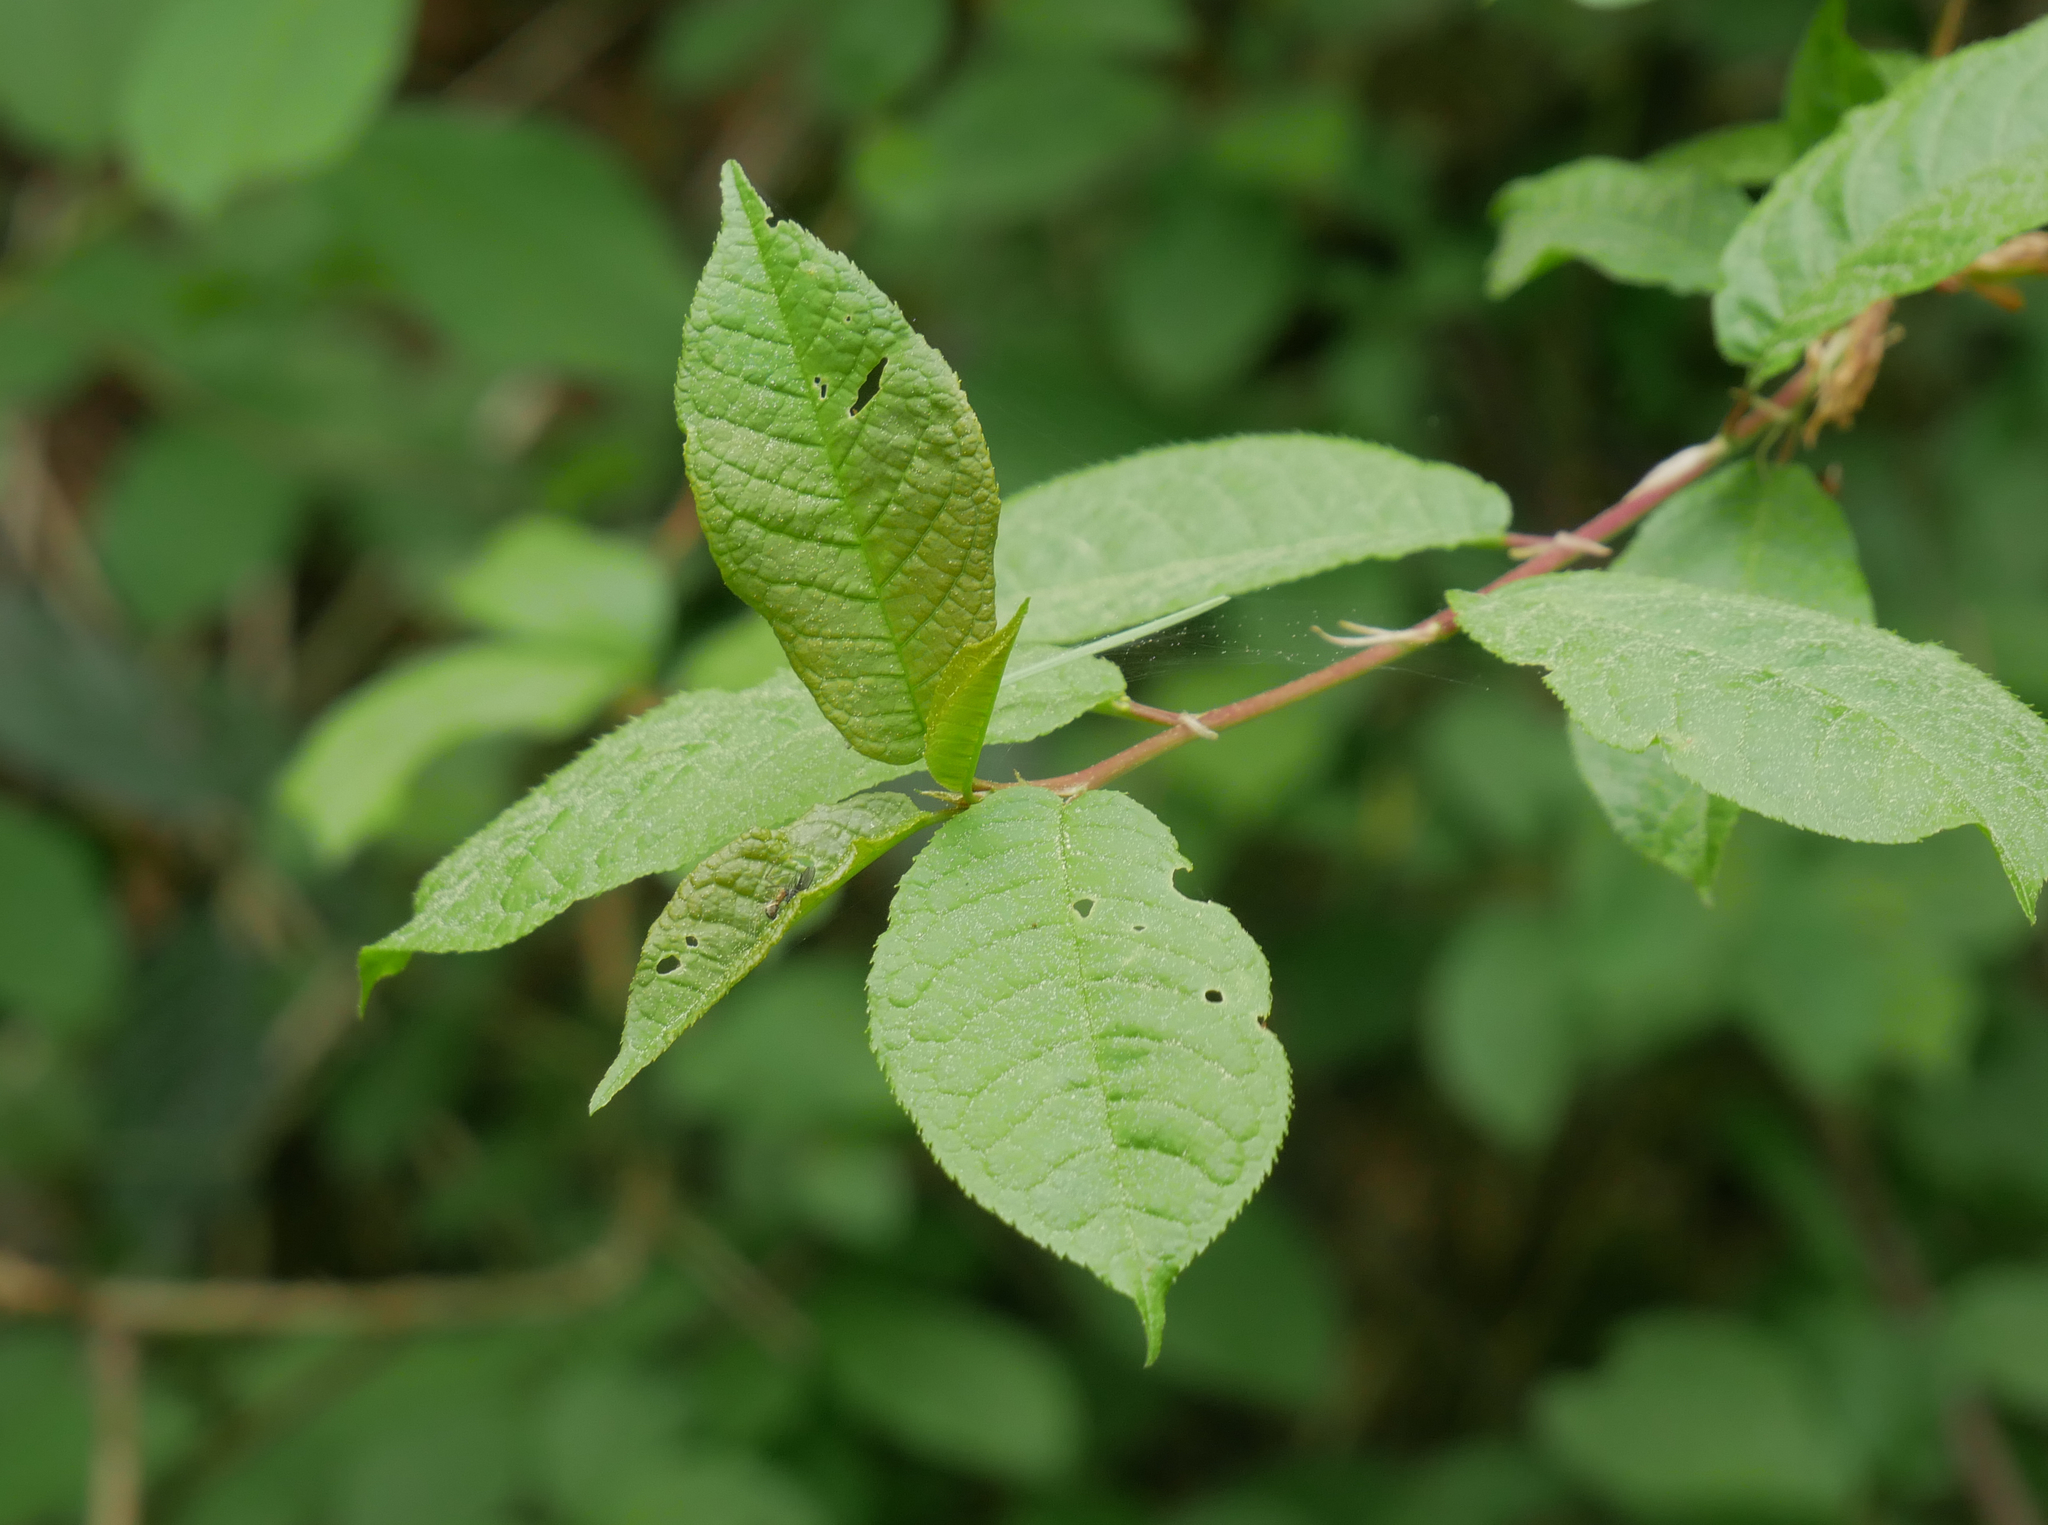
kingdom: Plantae
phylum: Tracheophyta
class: Magnoliopsida
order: Rosales
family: Rosaceae
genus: Prunus
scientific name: Prunus padus
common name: Bird cherry
